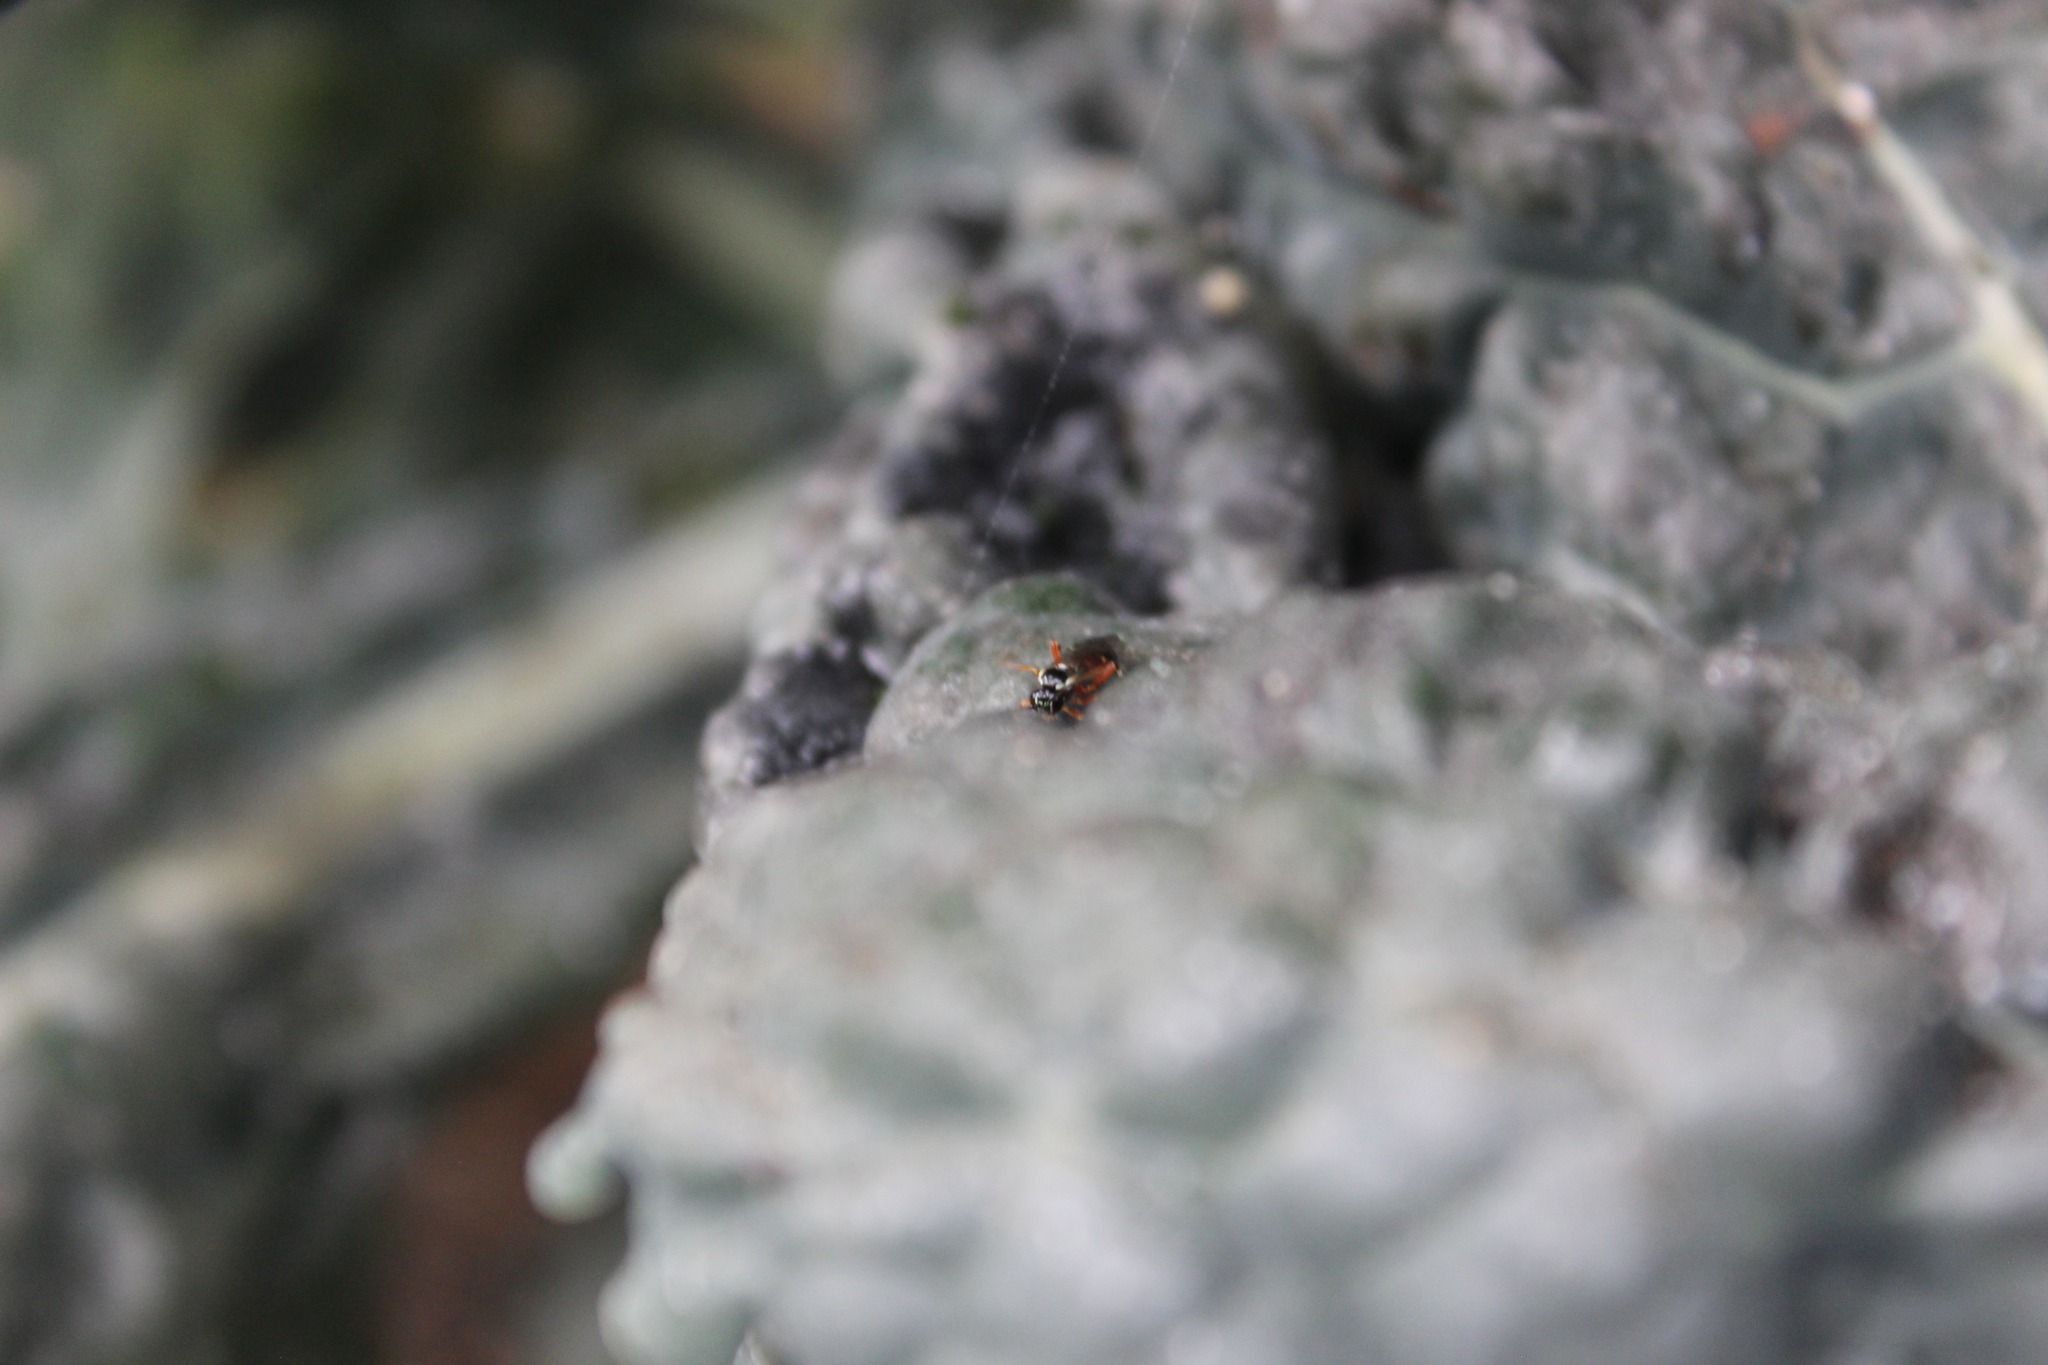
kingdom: Animalia
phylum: Arthropoda
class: Insecta
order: Hymenoptera
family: Ichneumonidae
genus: Diplazon
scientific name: Diplazon laetatorius
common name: Parasitoid wasp
